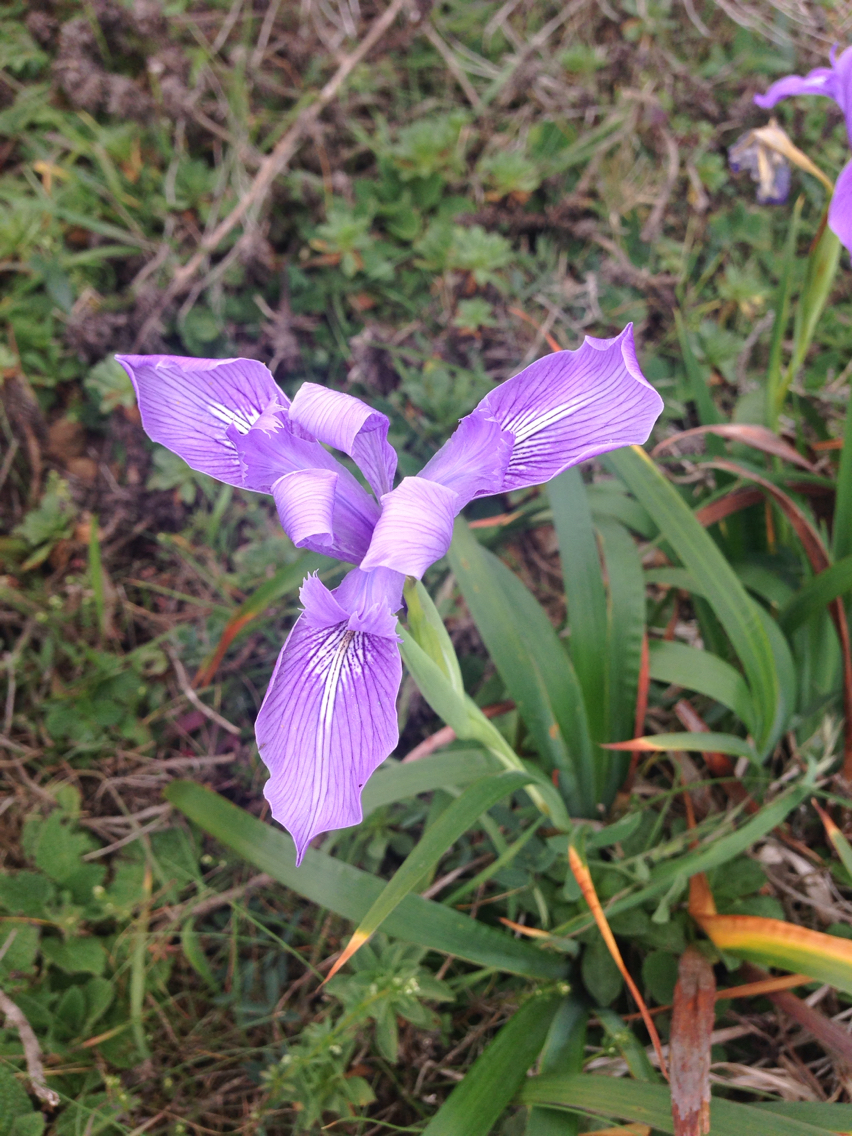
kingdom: Plantae
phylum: Tracheophyta
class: Liliopsida
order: Asparagales
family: Iridaceae
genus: Iris
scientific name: Iris douglasiana
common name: Marin iris
